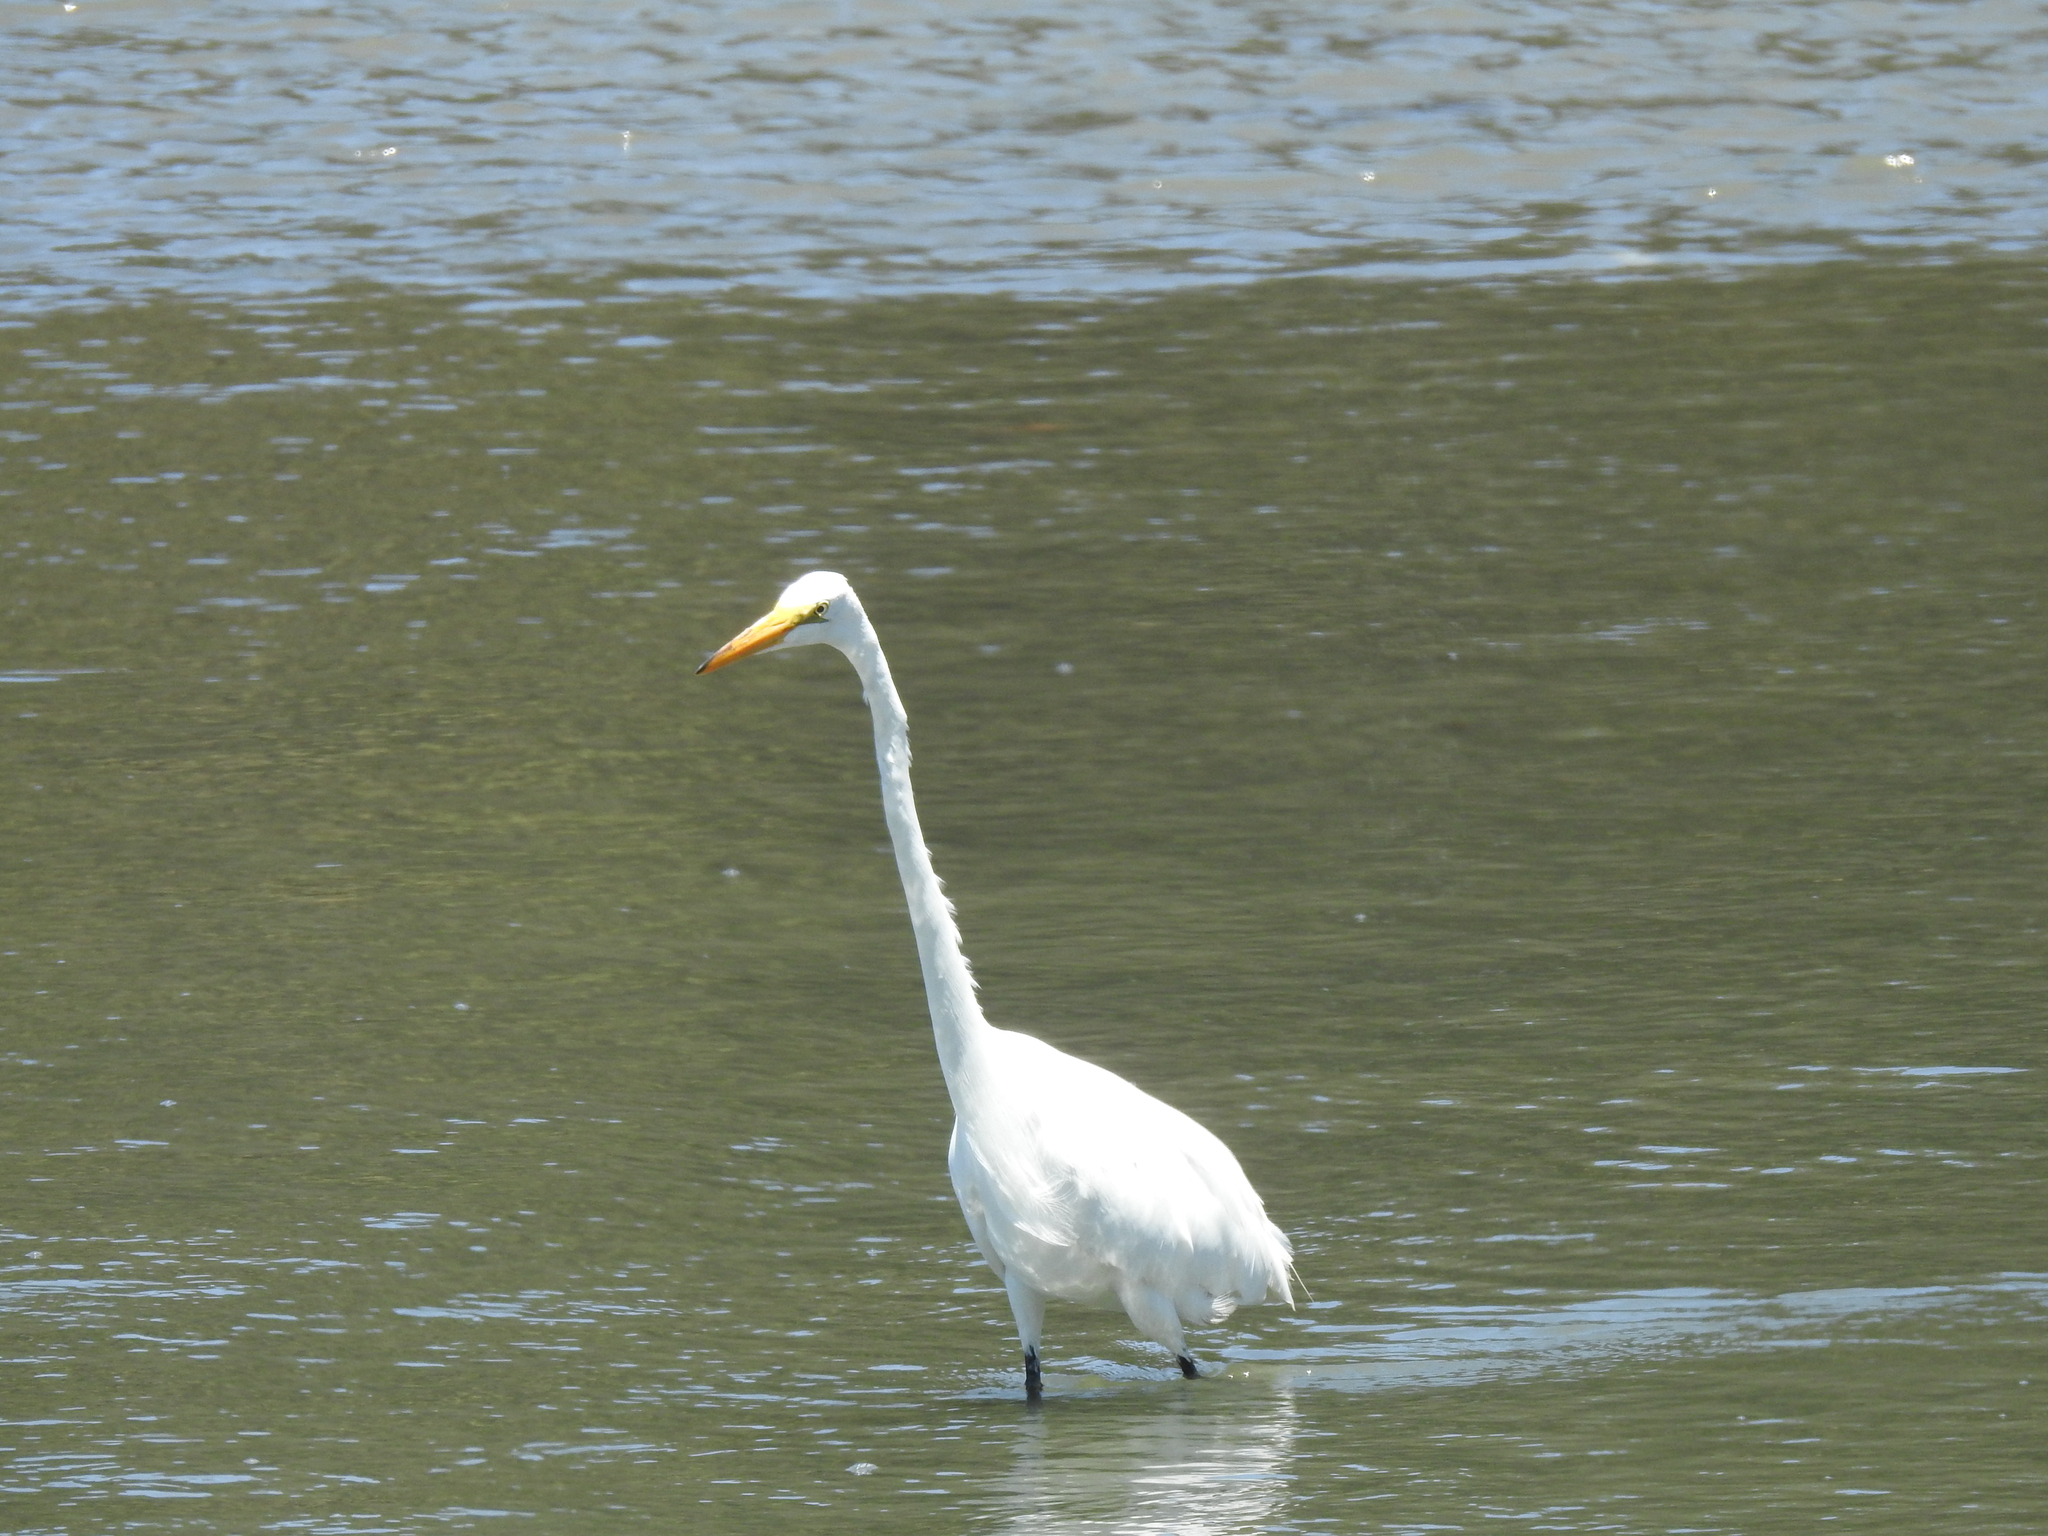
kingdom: Animalia
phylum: Chordata
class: Aves
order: Pelecaniformes
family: Ardeidae
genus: Ardea
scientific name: Ardea alba
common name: Great egret
